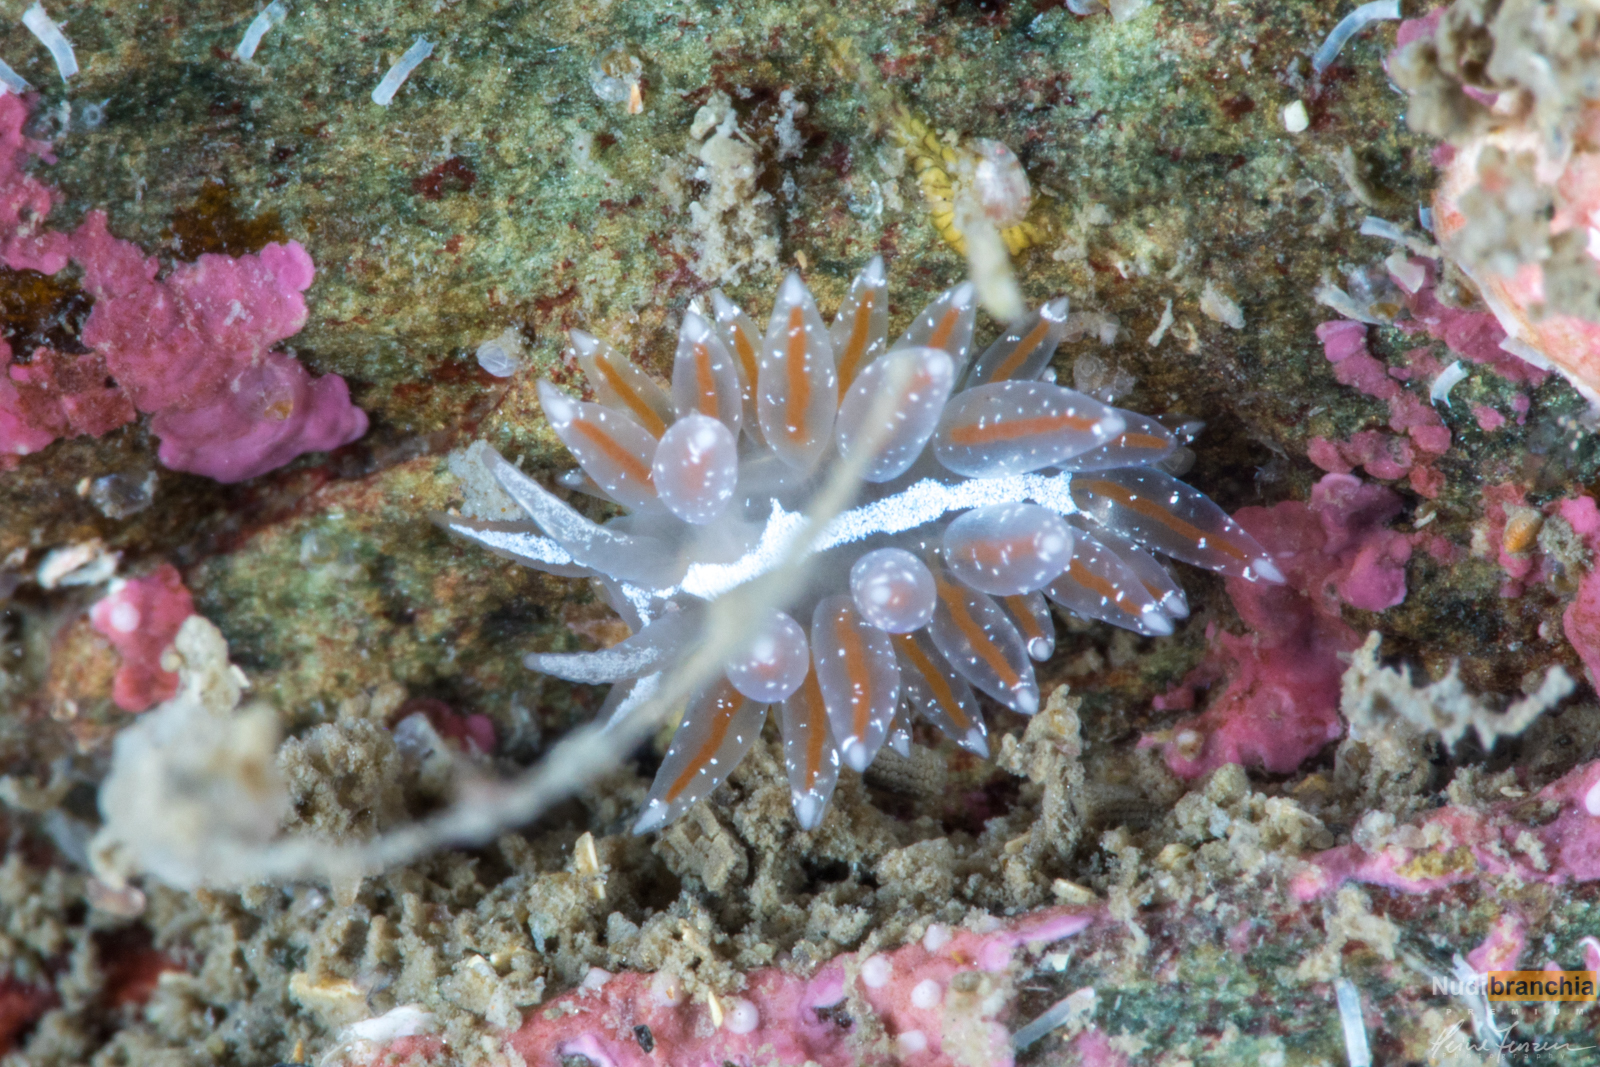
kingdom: Animalia
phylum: Mollusca
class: Gastropoda
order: Nudibranchia
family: Coryphellidae
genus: Coryphella
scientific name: Coryphella monicae
